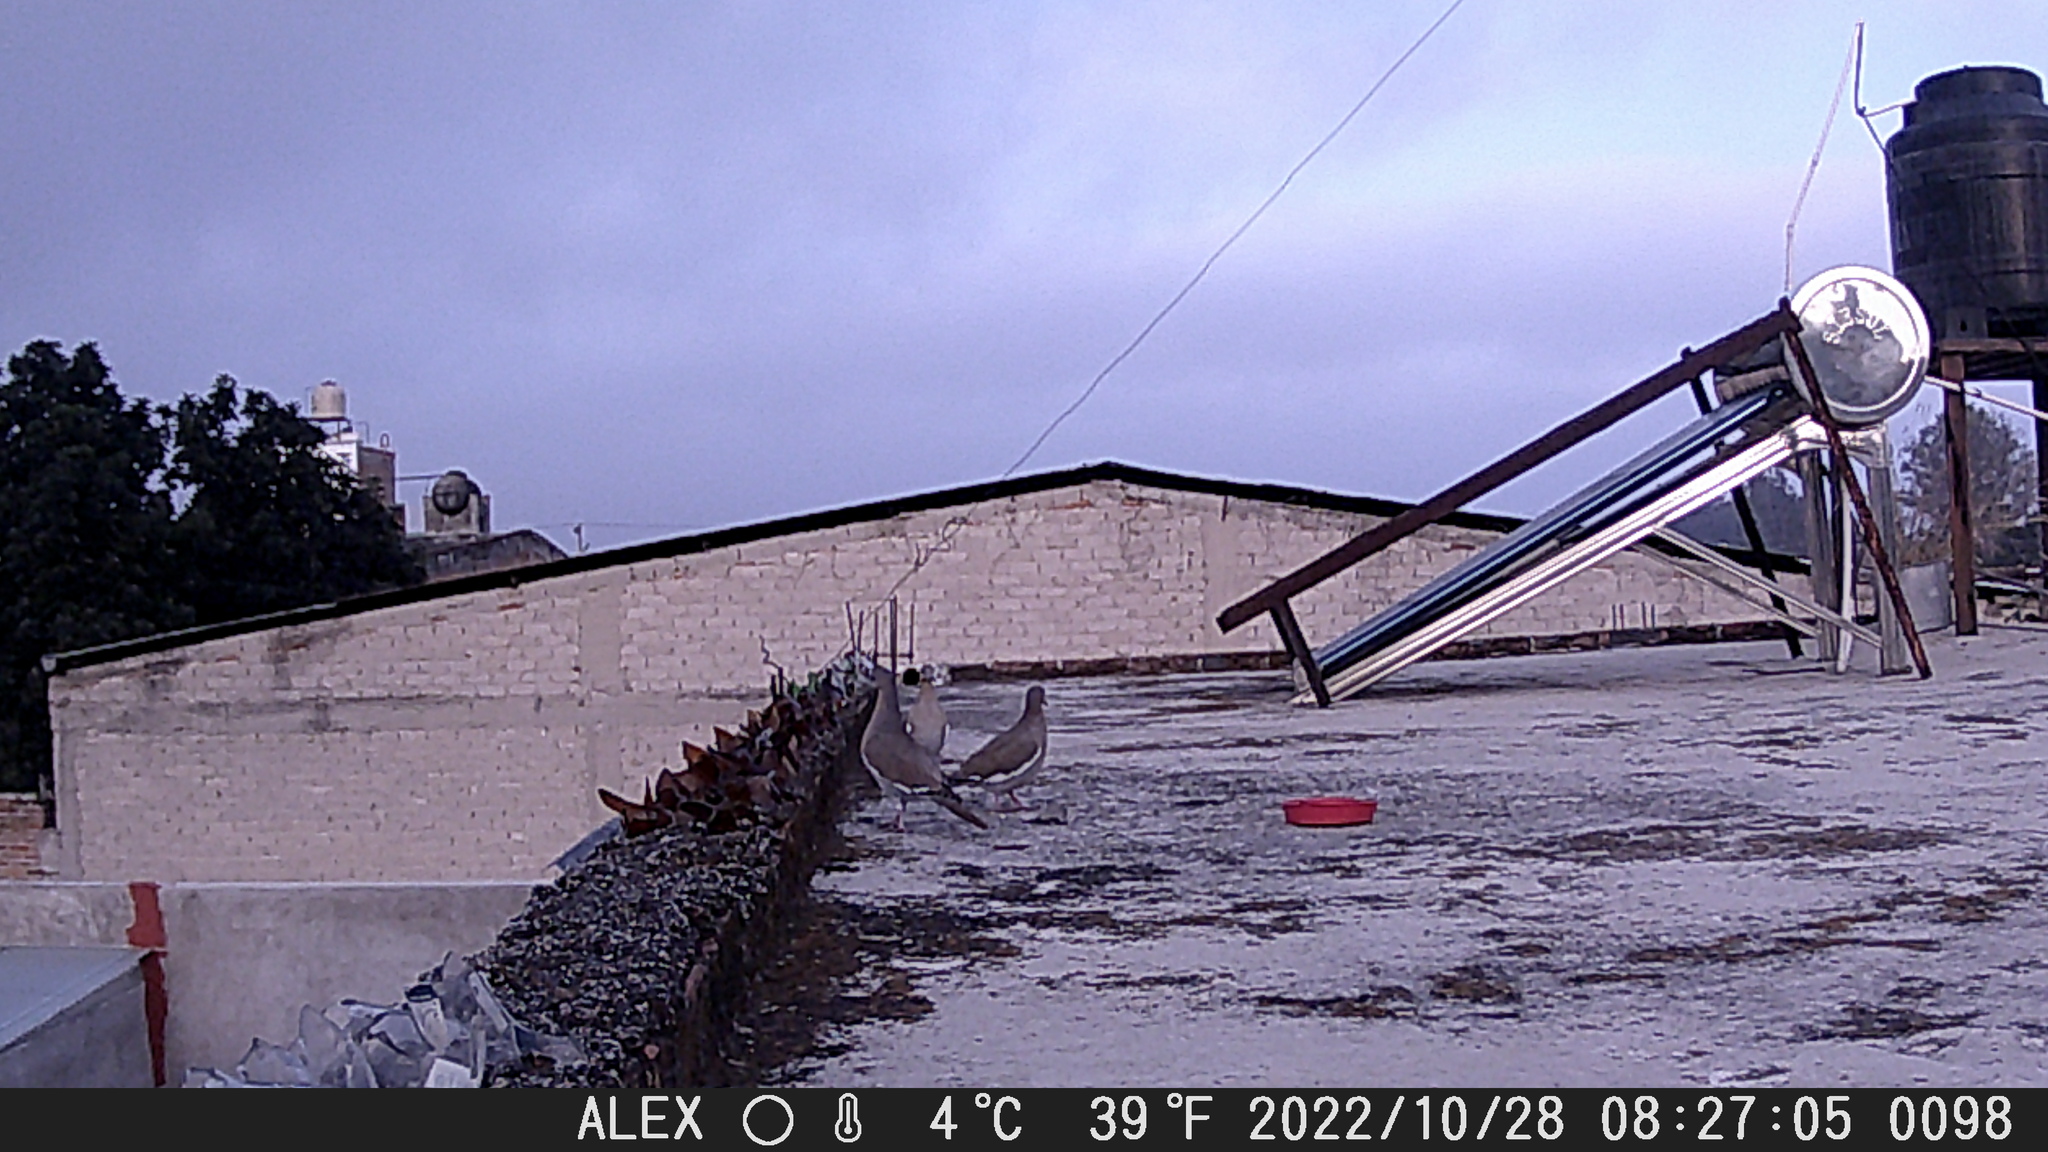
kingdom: Animalia
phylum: Chordata
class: Aves
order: Columbiformes
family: Columbidae
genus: Zenaida
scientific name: Zenaida asiatica
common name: White-winged dove
